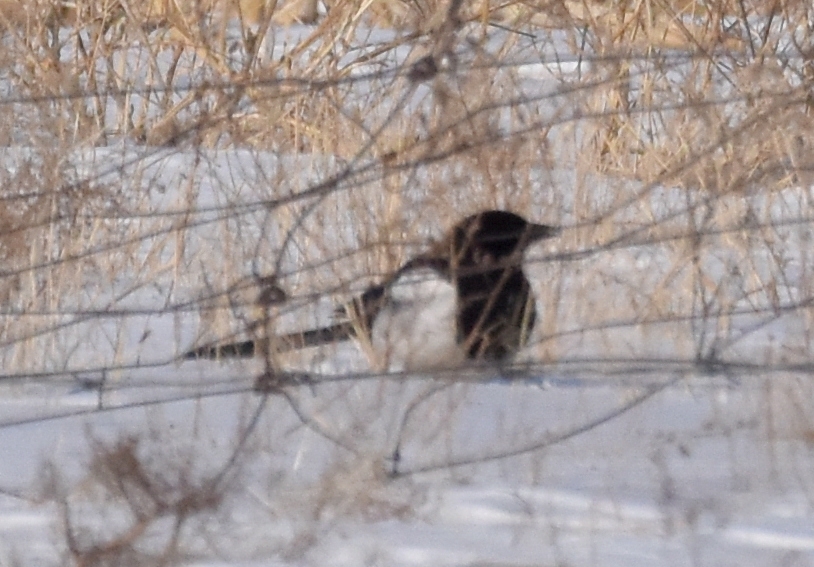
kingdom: Animalia
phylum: Chordata
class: Aves
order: Passeriformes
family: Corvidae
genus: Pica
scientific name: Pica serica
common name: Oriental magpie
